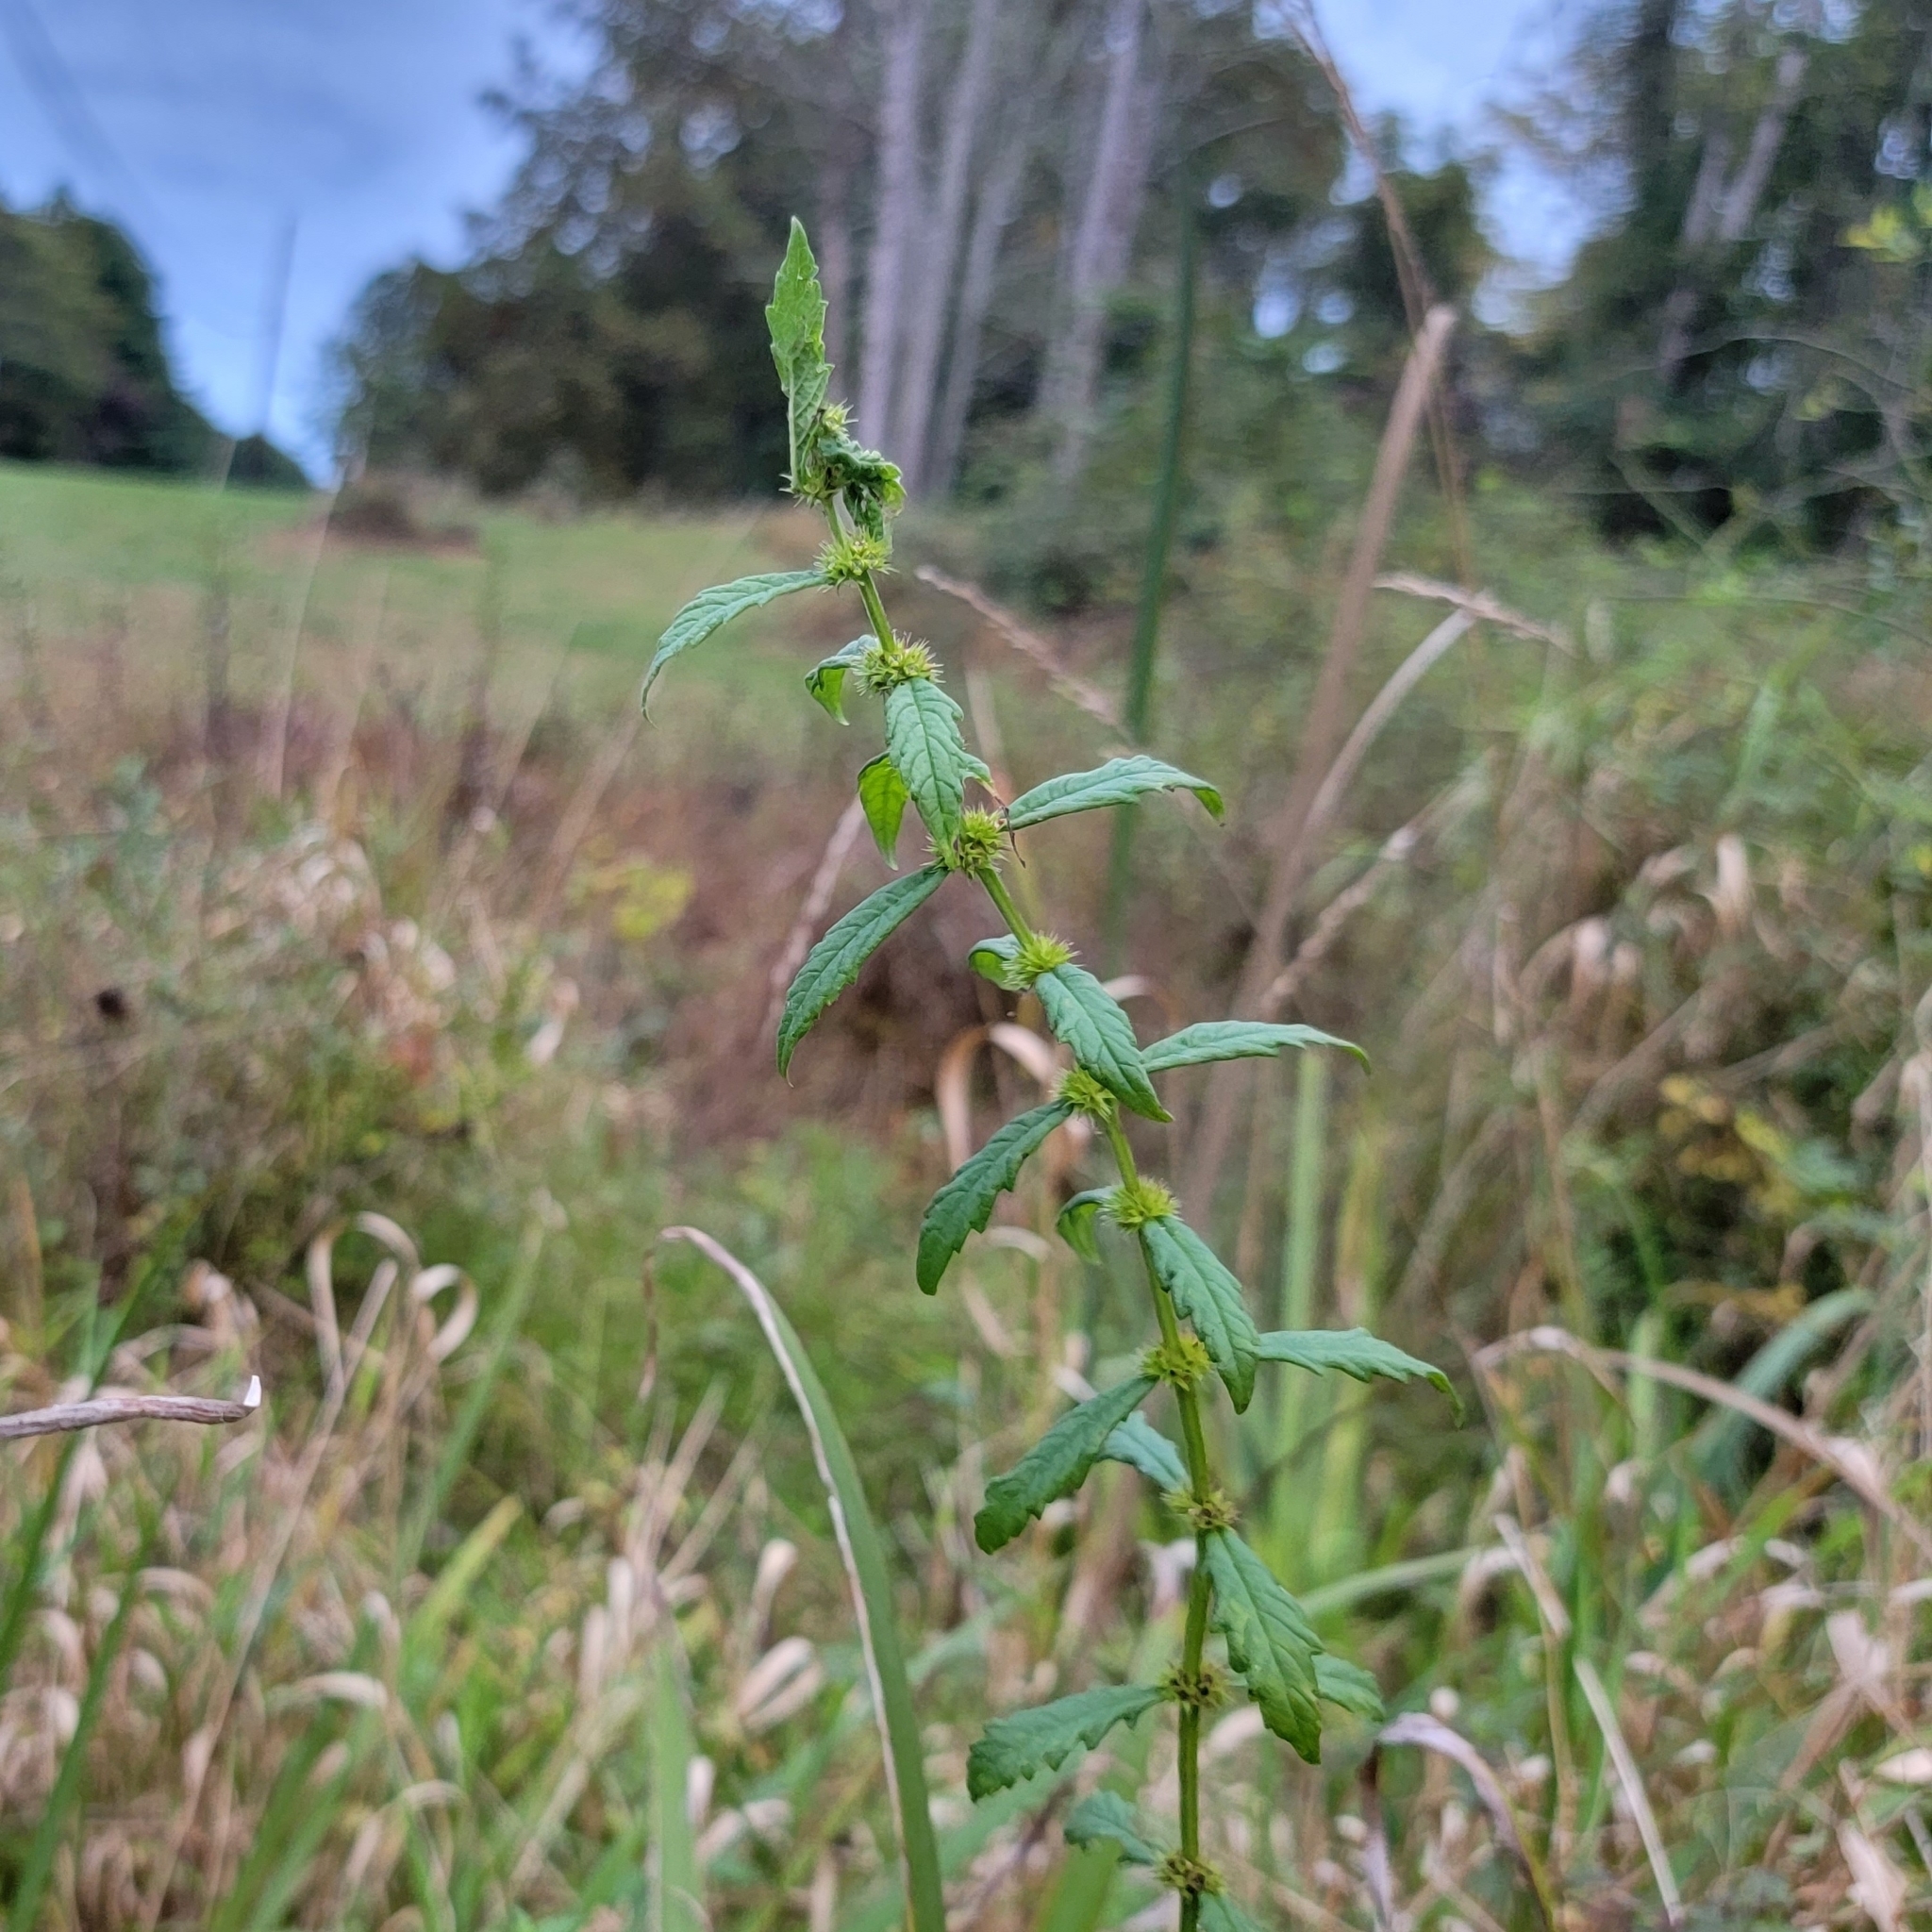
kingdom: Plantae
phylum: Tracheophyta
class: Magnoliopsida
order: Lamiales
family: Lamiaceae
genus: Lycopus
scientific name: Lycopus europaeus
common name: European bugleweed
